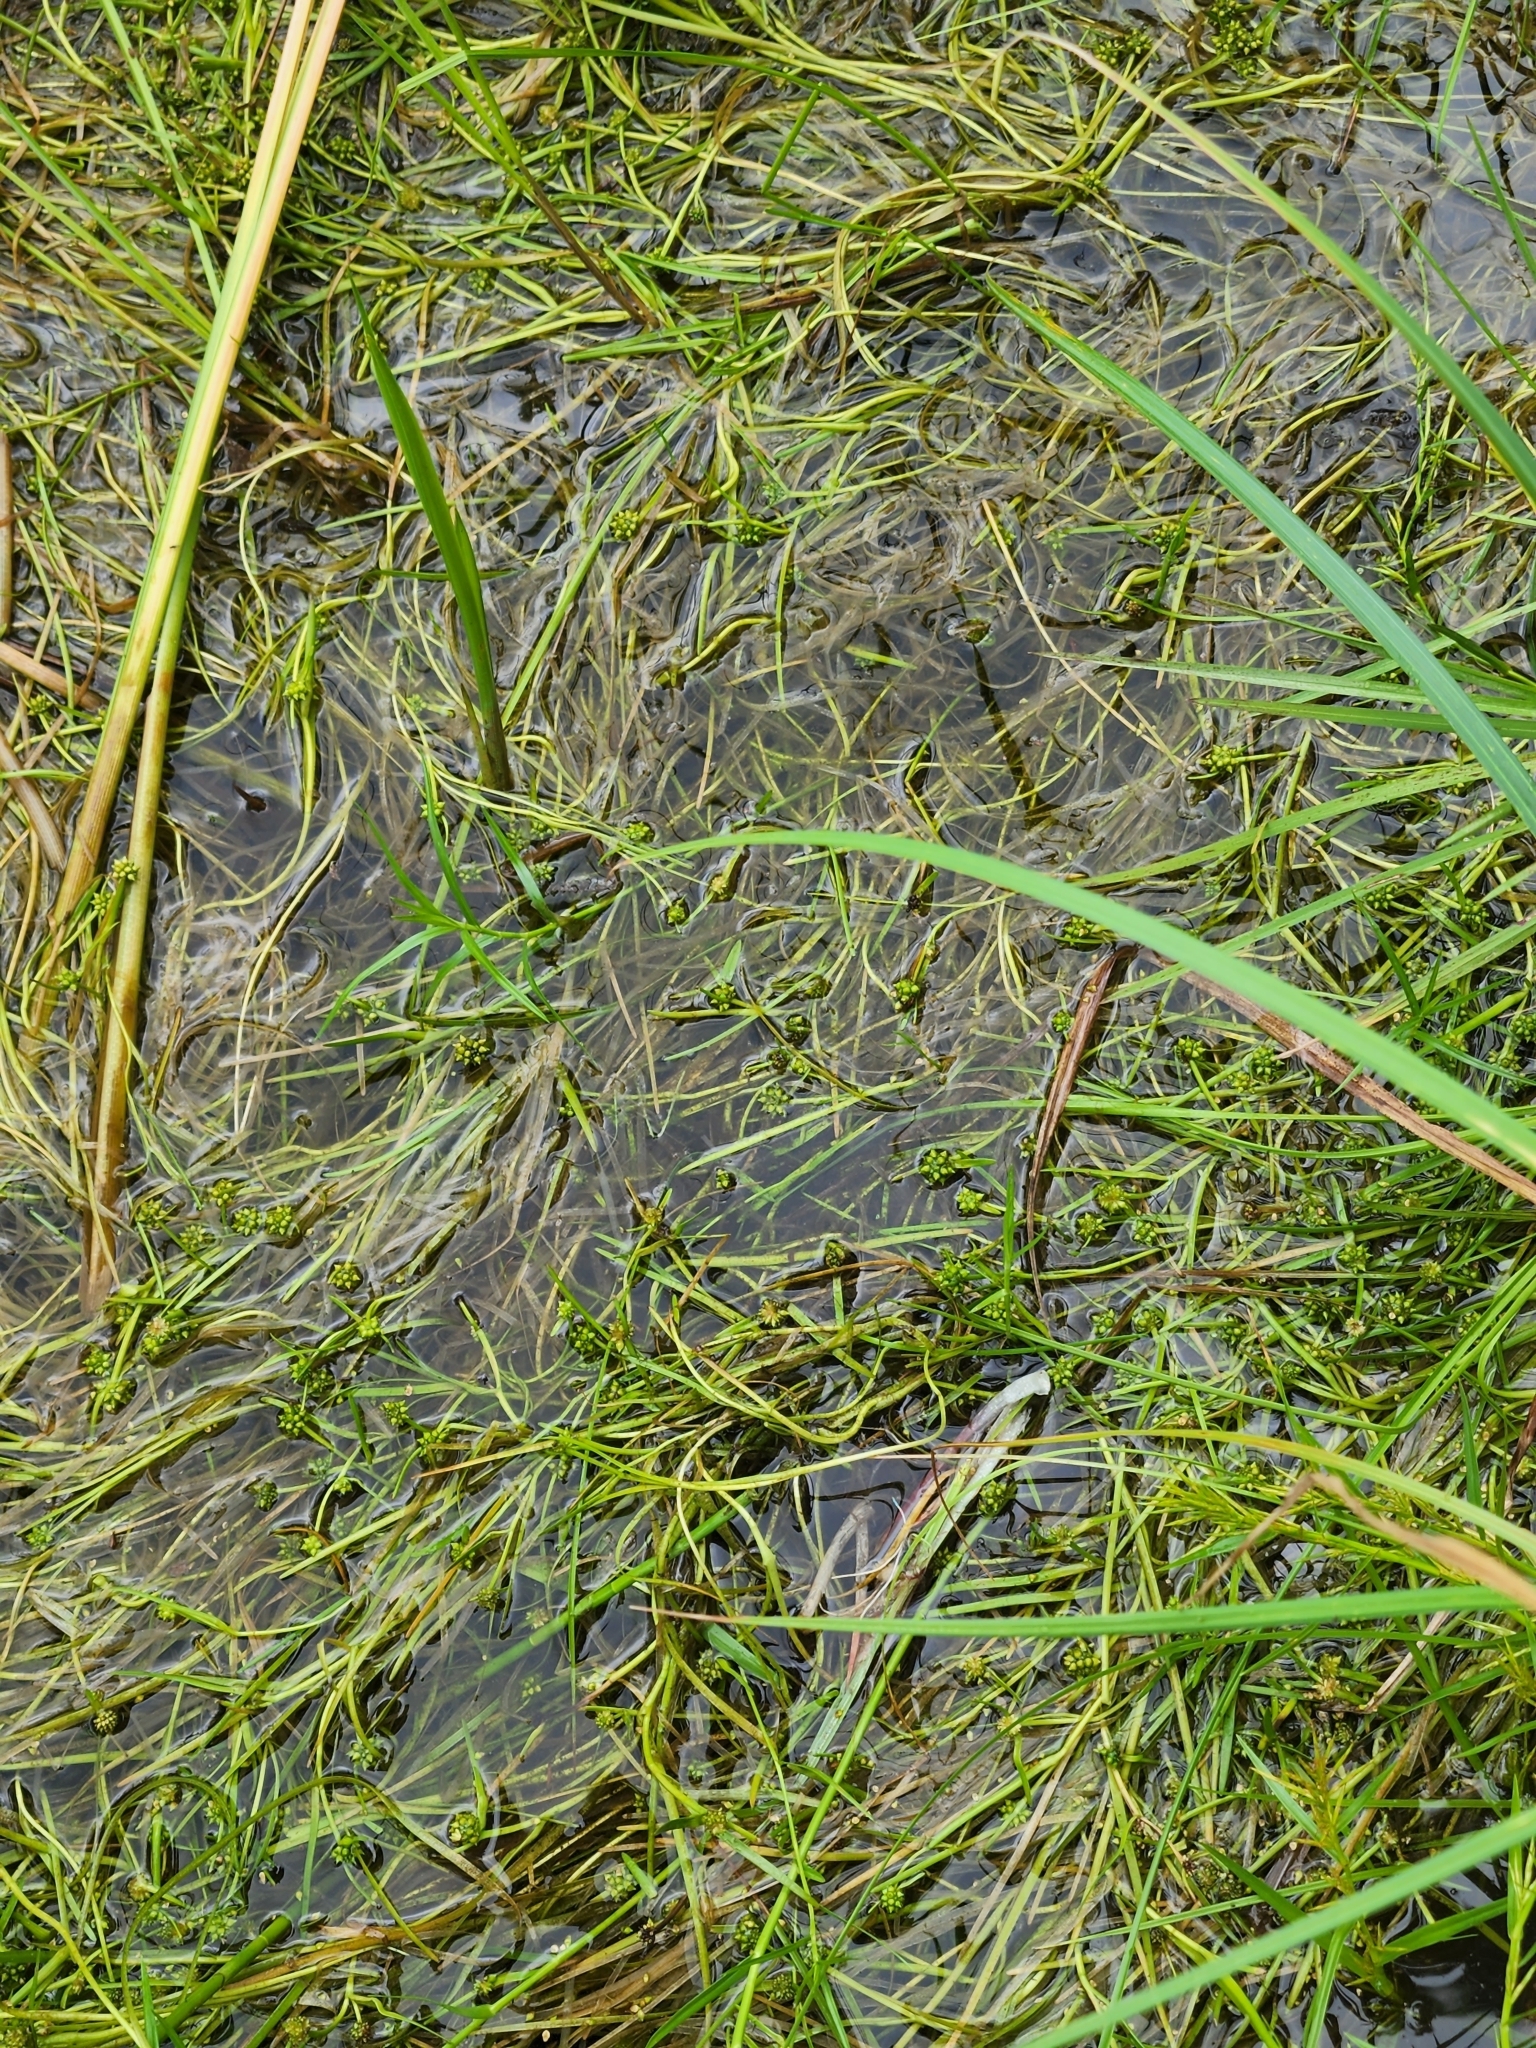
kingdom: Plantae
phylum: Tracheophyta
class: Liliopsida
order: Poales
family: Typhaceae
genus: Sparganium
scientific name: Sparganium natans
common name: Least bur-reed
